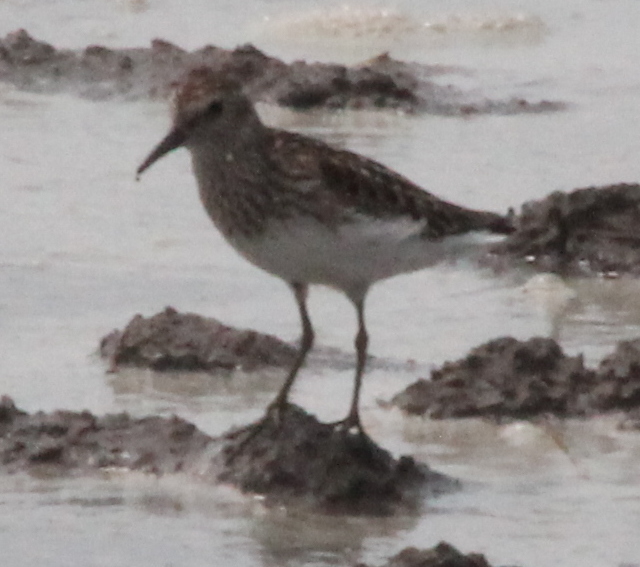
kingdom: Animalia
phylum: Chordata
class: Aves
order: Charadriiformes
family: Scolopacidae
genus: Calidris
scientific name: Calidris minutilla
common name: Least sandpiper
